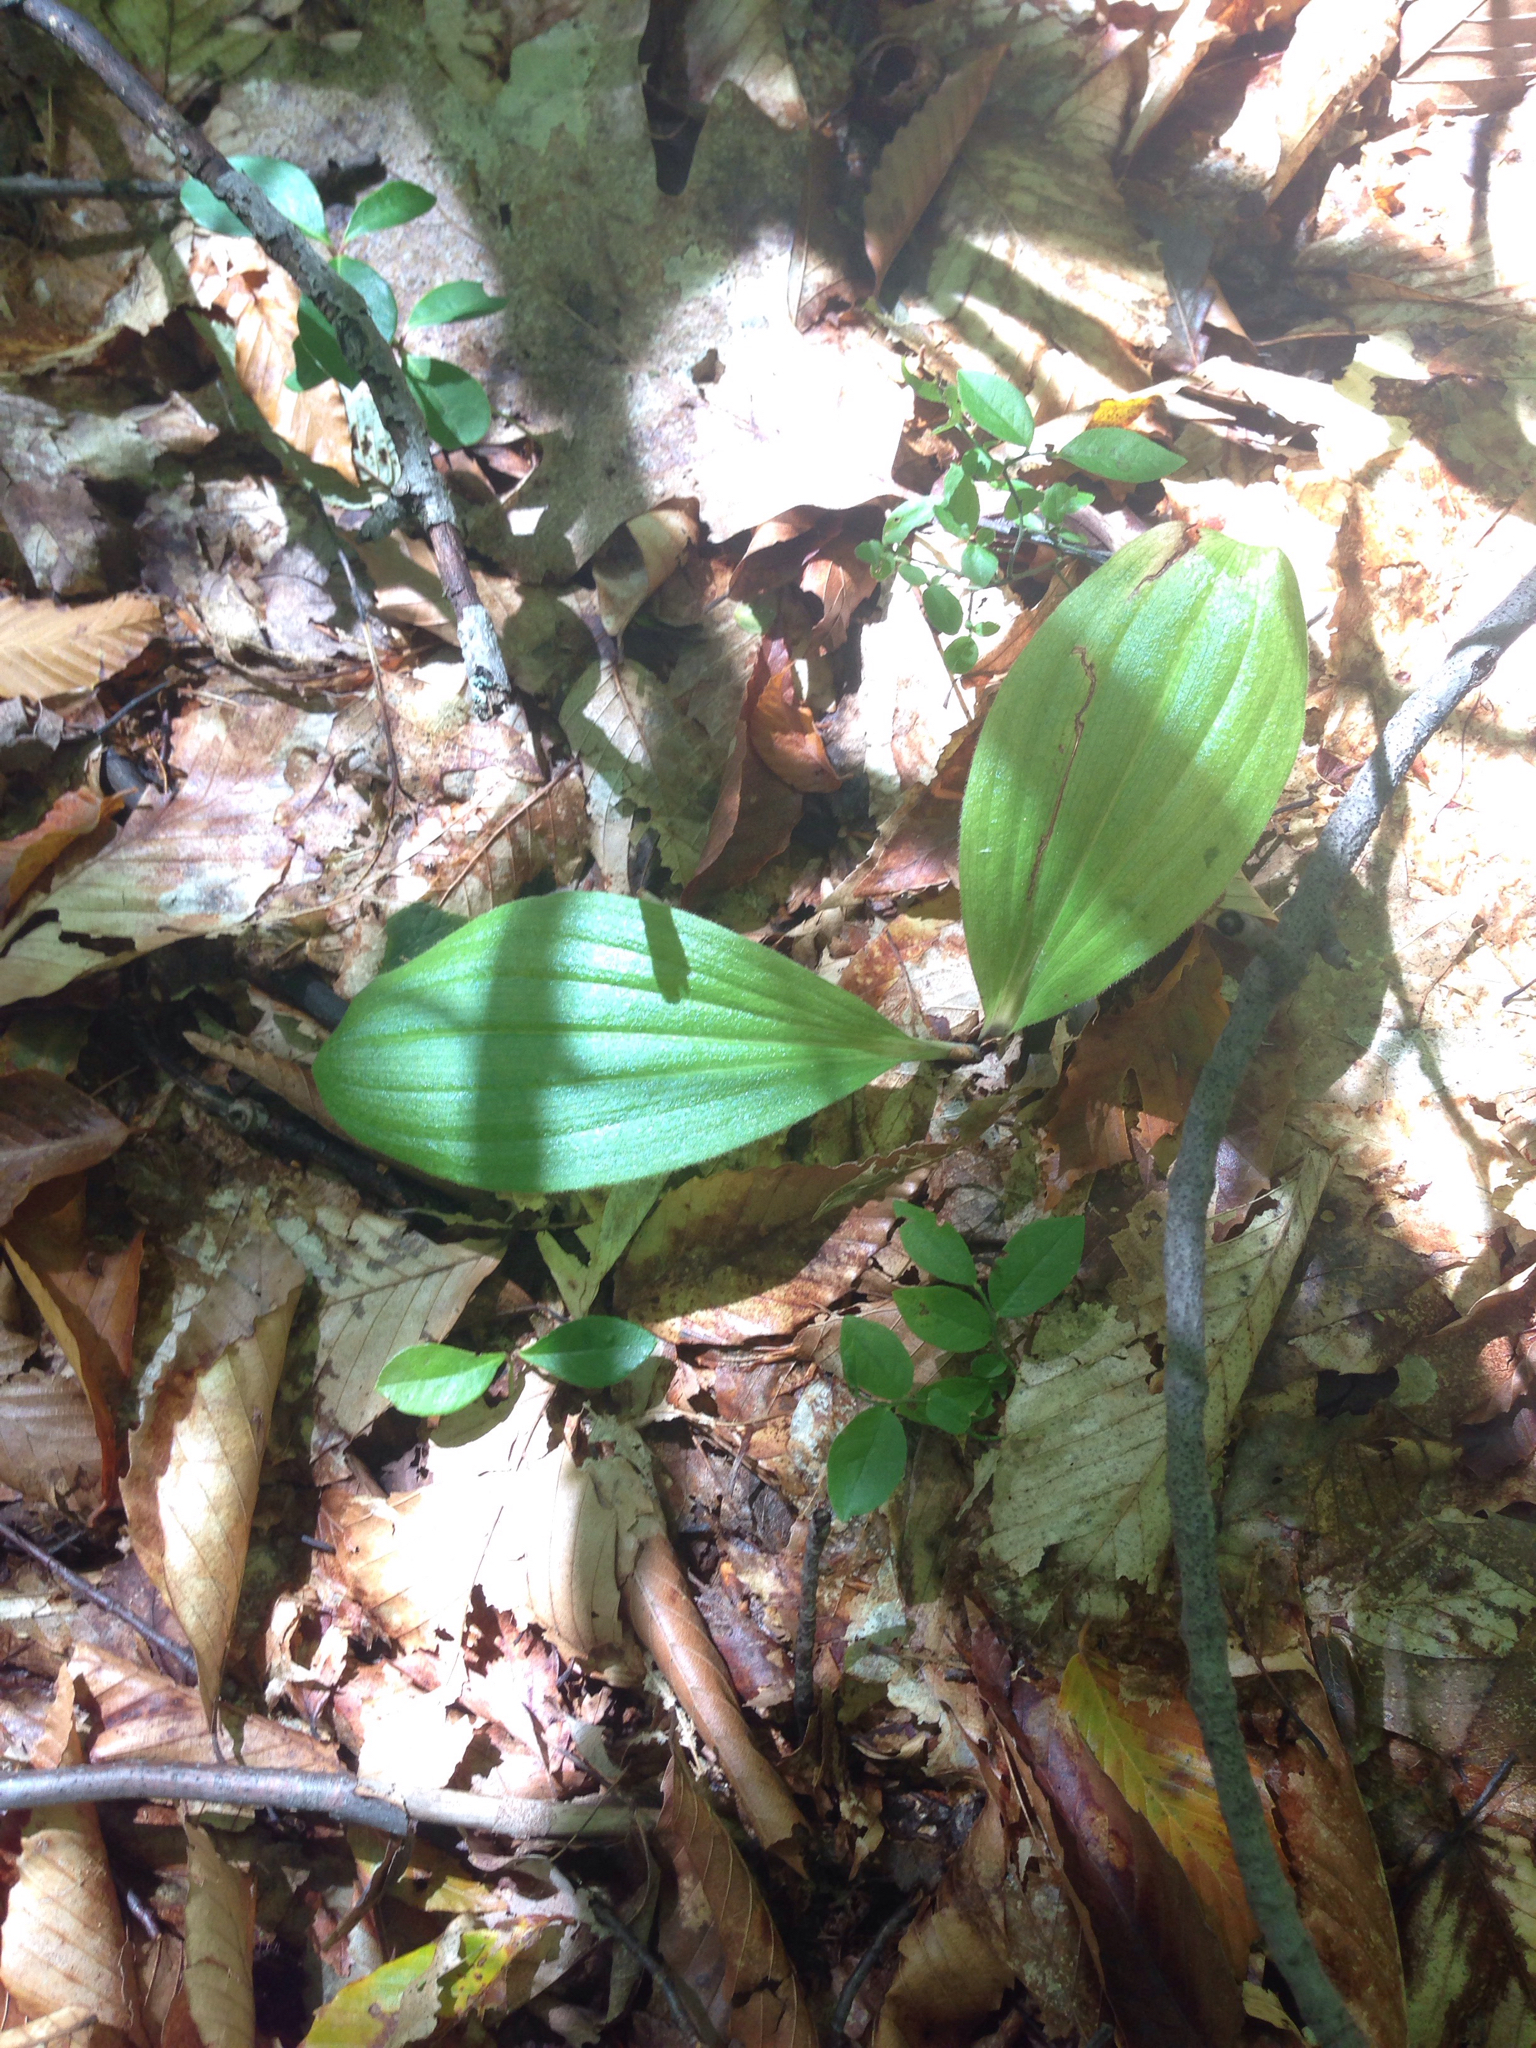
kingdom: Plantae
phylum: Tracheophyta
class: Liliopsida
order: Asparagales
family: Orchidaceae
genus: Cypripedium
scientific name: Cypripedium acaule
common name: Pink lady's-slipper
